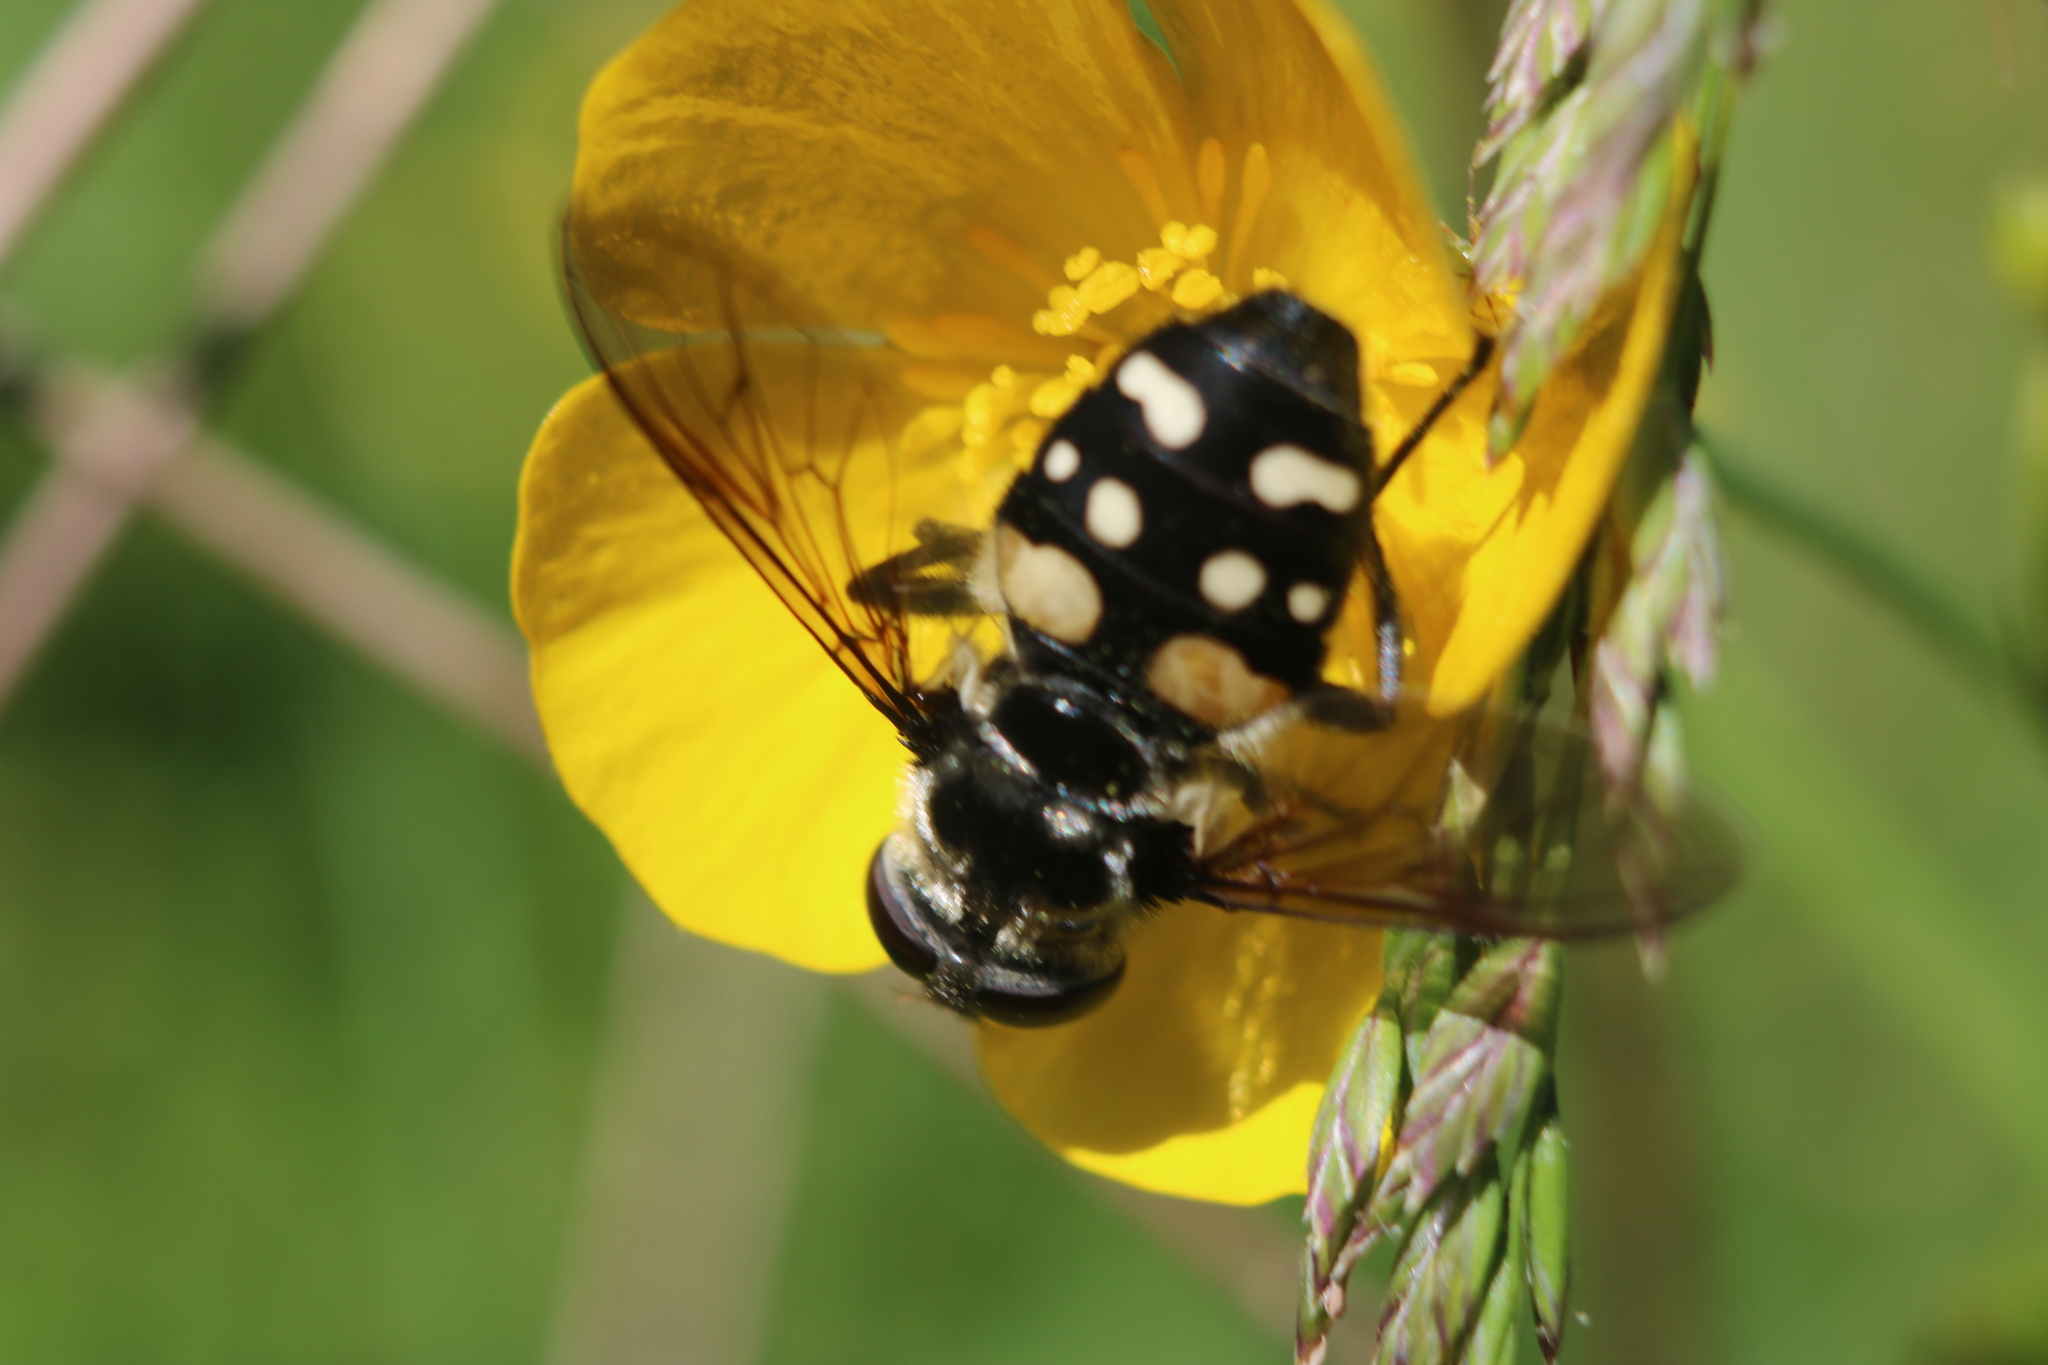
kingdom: Animalia
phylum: Arthropoda
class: Insecta
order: Diptera
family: Syrphidae
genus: Sericomyia
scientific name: Sericomyia lata
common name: White-spotted pond fly
